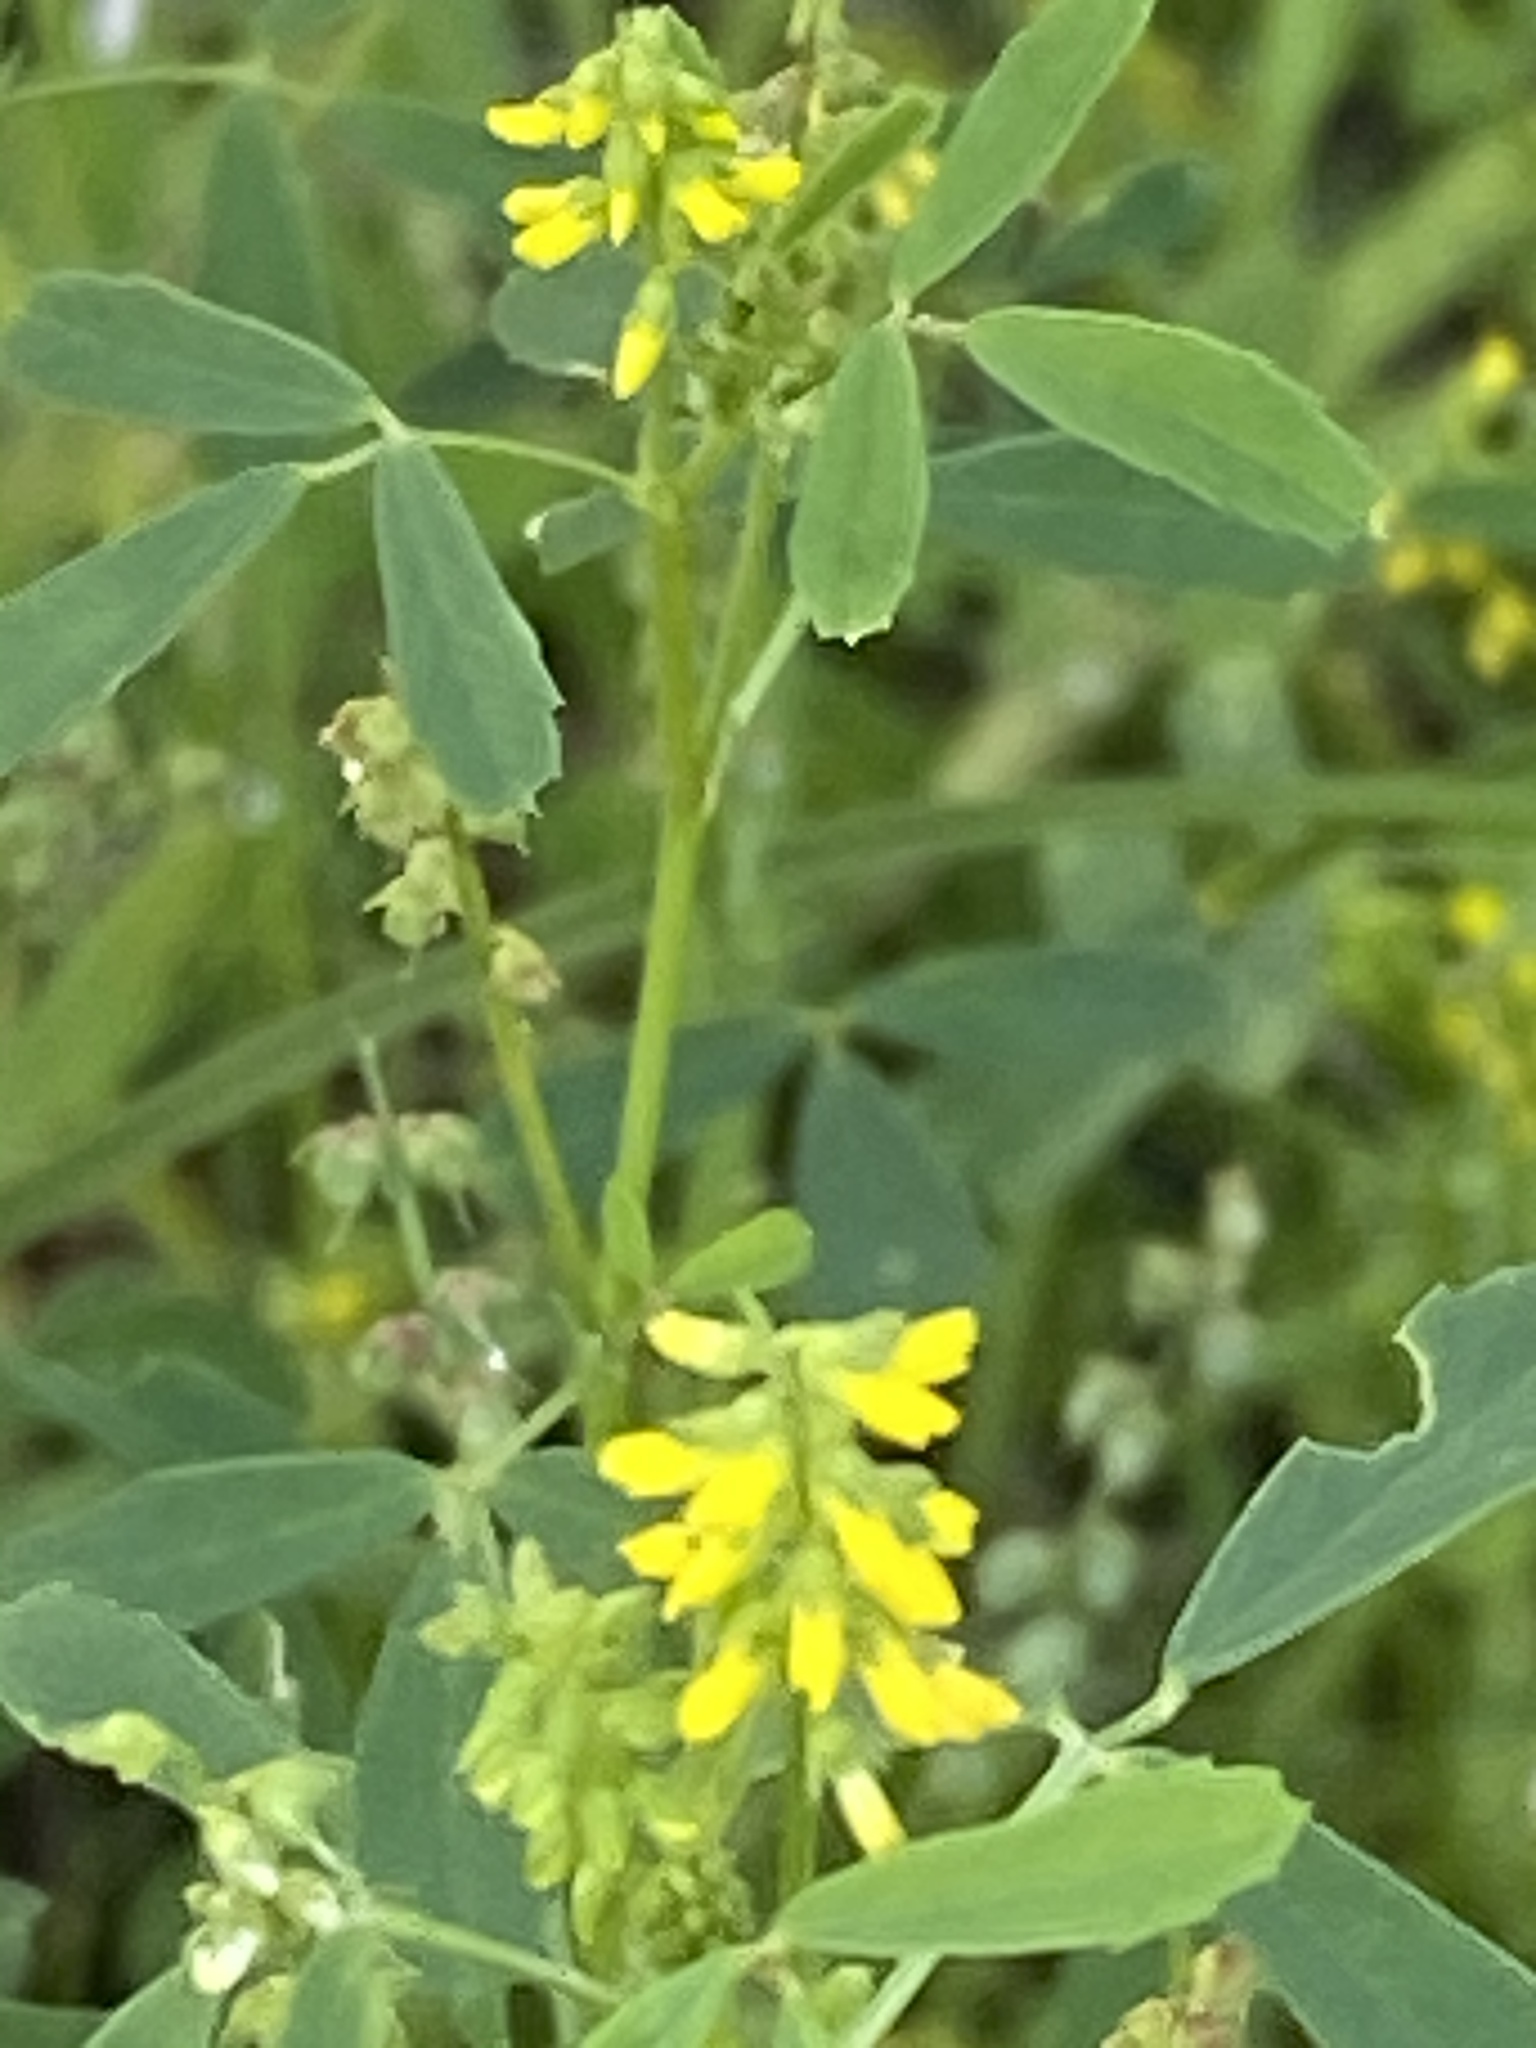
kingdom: Plantae
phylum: Tracheophyta
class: Magnoliopsida
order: Fabales
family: Fabaceae
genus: Melilotus
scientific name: Melilotus indicus
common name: Small melilot
